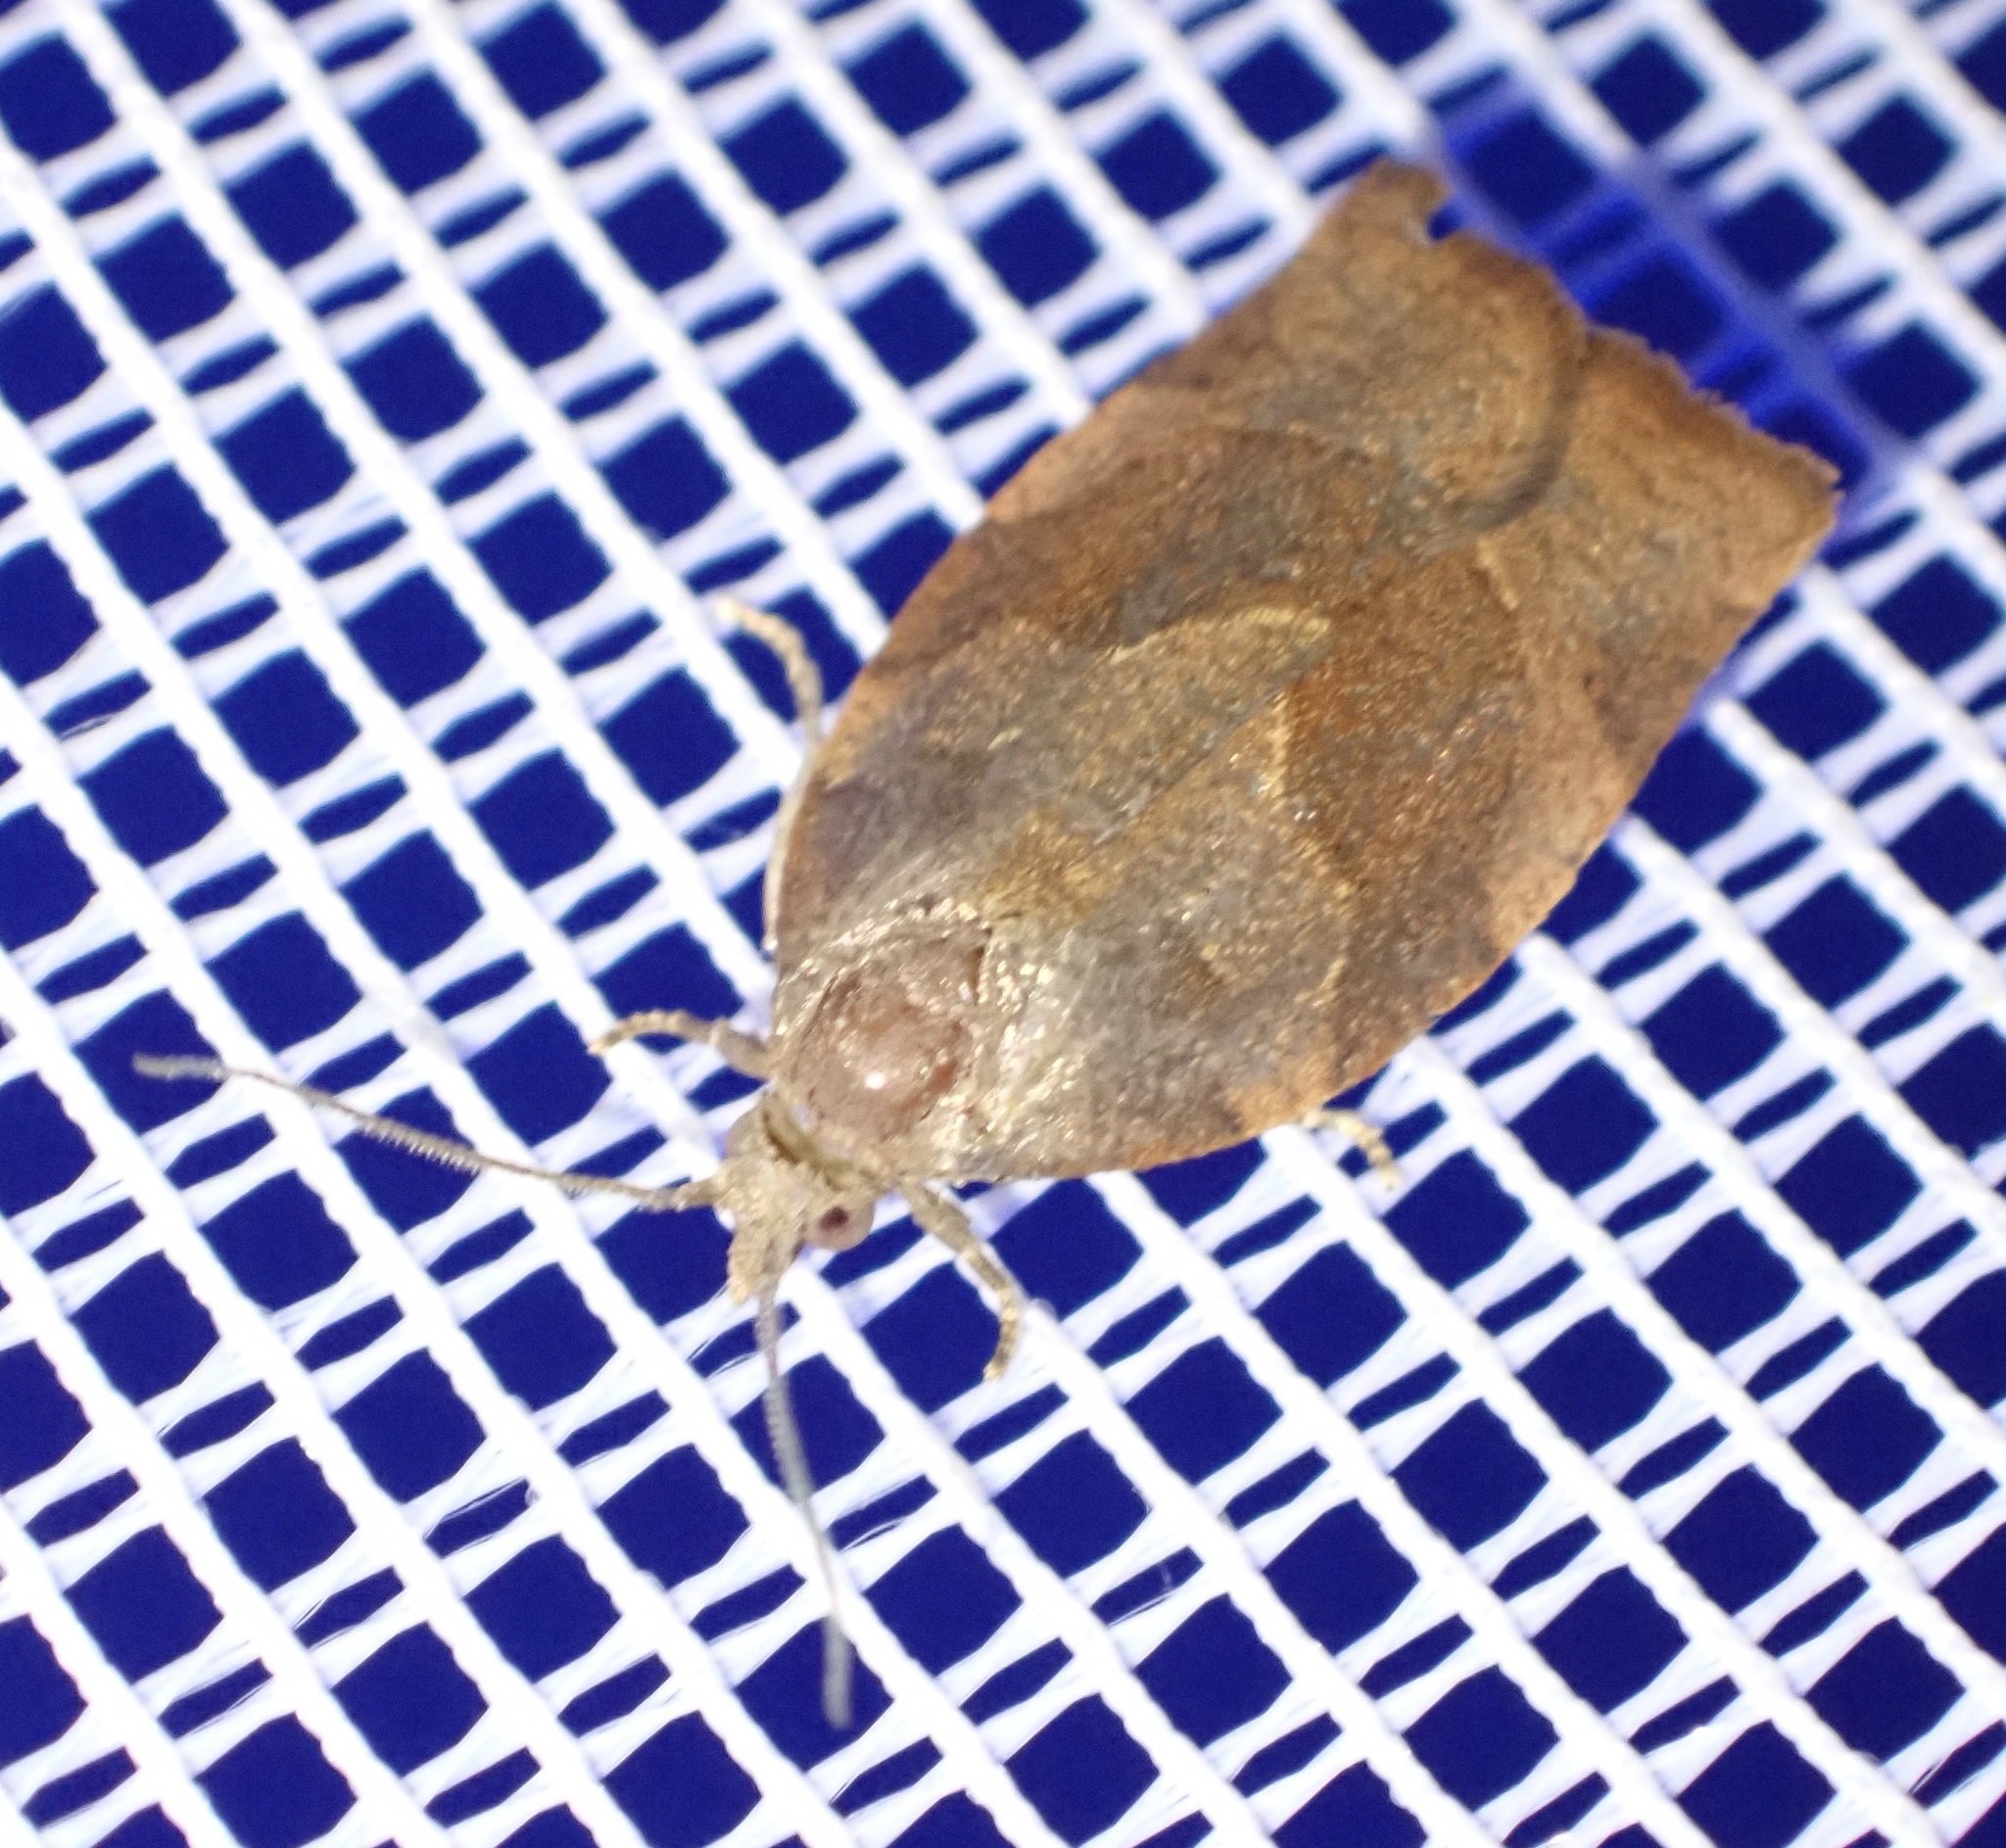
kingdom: Animalia
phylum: Arthropoda
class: Insecta
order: Lepidoptera
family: Tortricidae
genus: Pandemis
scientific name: Pandemis heparana
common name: Dark fruit-tree tortrix
